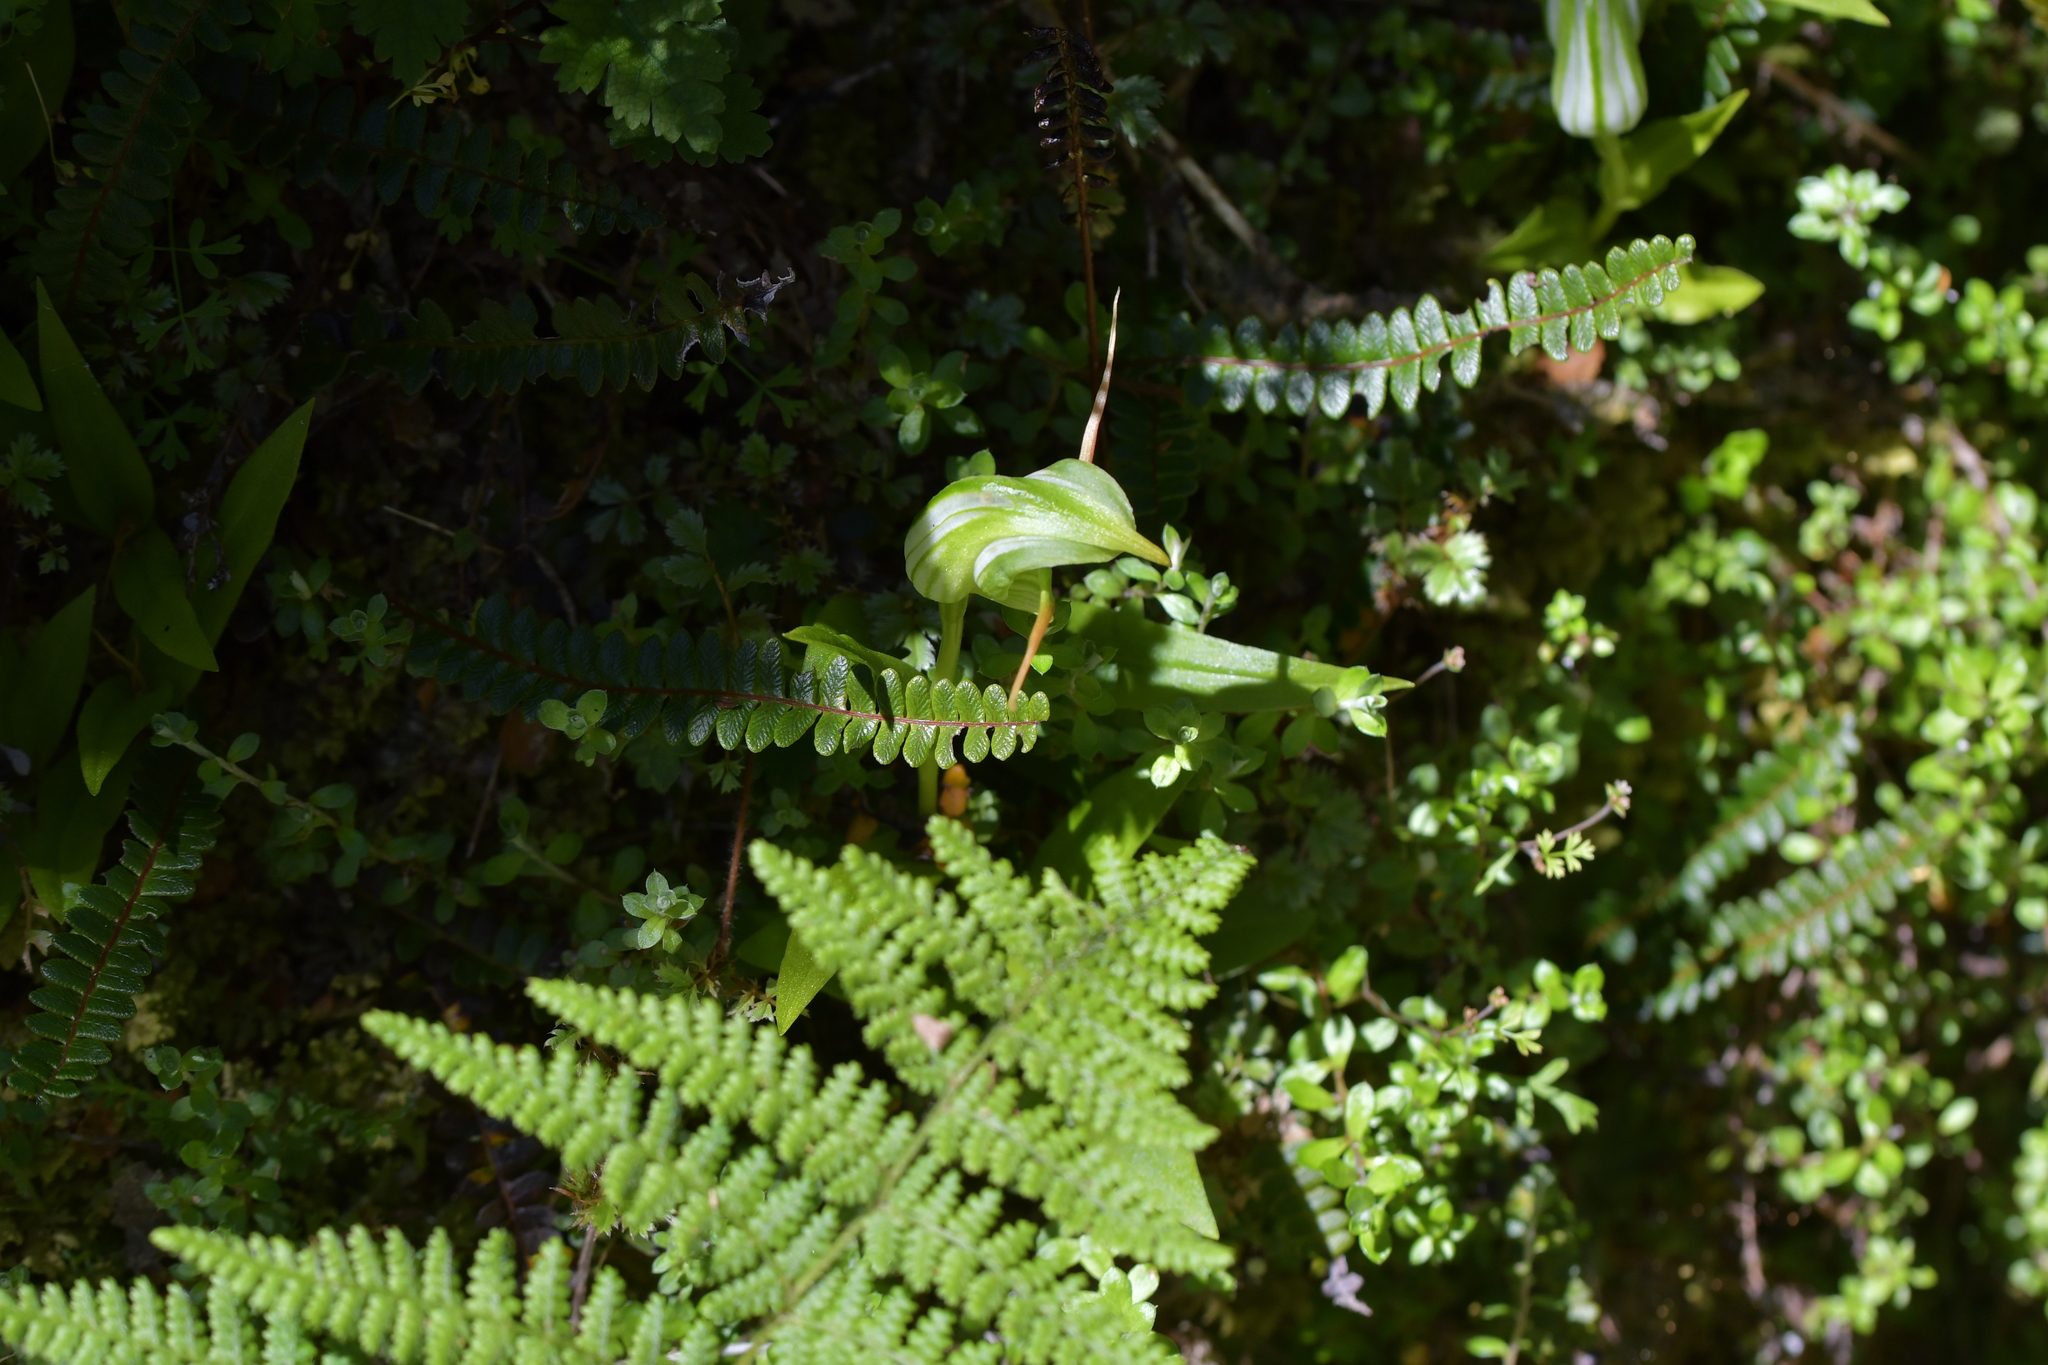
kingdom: Plantae
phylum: Tracheophyta
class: Liliopsida
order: Asparagales
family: Orchidaceae
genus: Pterostylis
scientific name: Pterostylis australis
